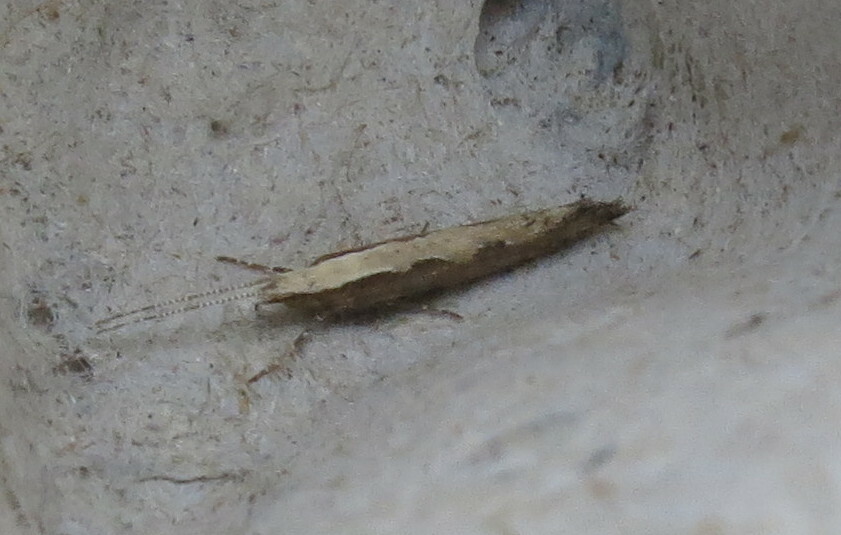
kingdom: Animalia
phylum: Arthropoda
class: Insecta
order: Lepidoptera
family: Plutellidae
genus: Plutella
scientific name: Plutella xylostella
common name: Diamond-back moth
